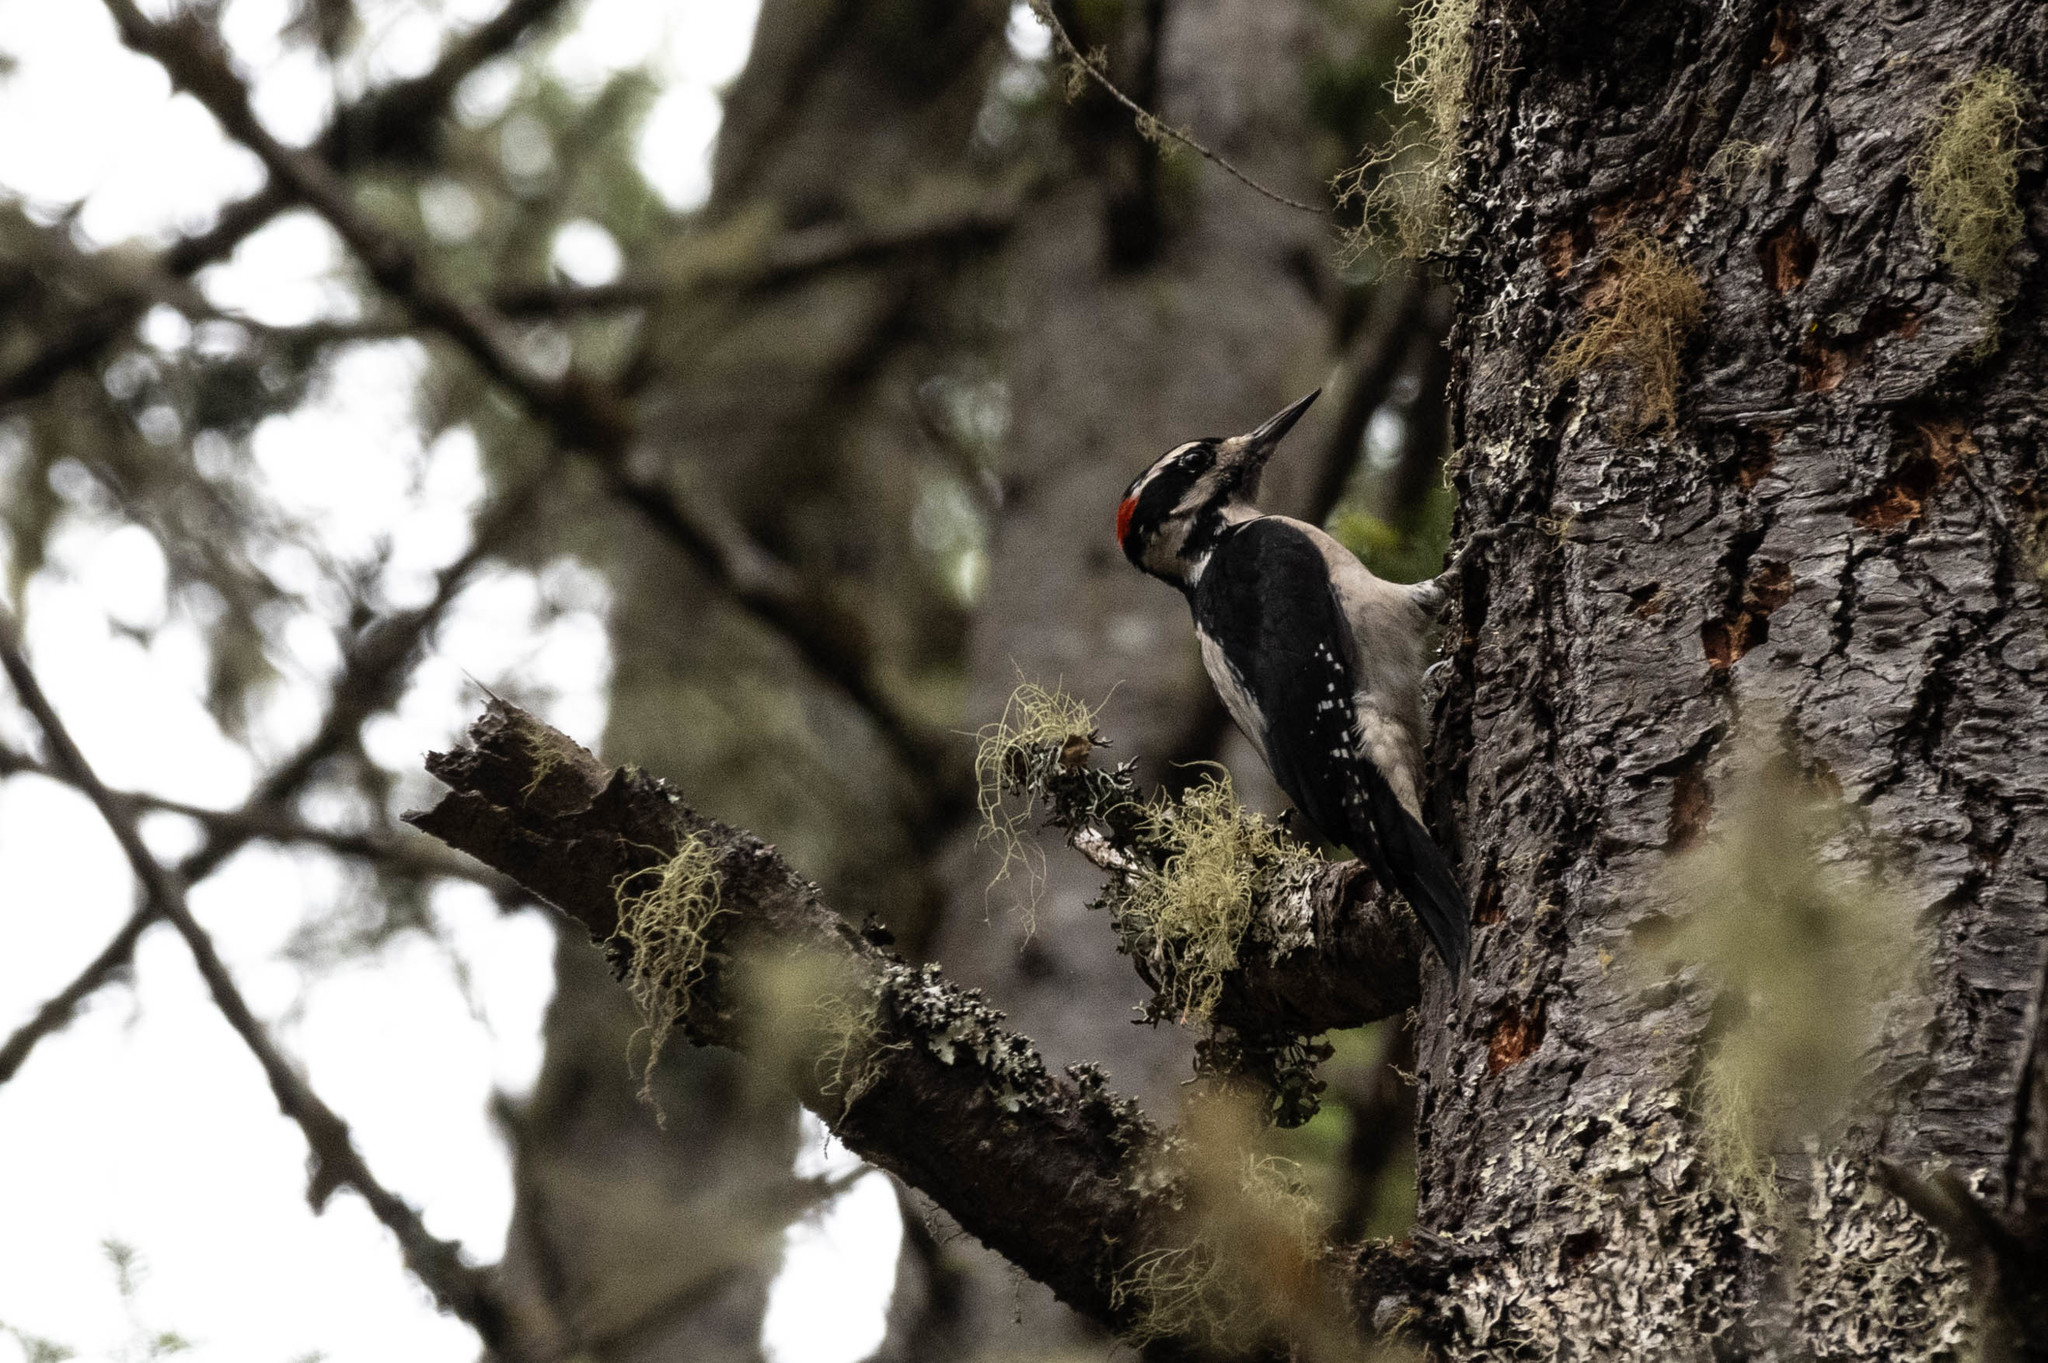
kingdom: Animalia
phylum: Chordata
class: Aves
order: Piciformes
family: Picidae
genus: Leuconotopicus
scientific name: Leuconotopicus villosus
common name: Hairy woodpecker
